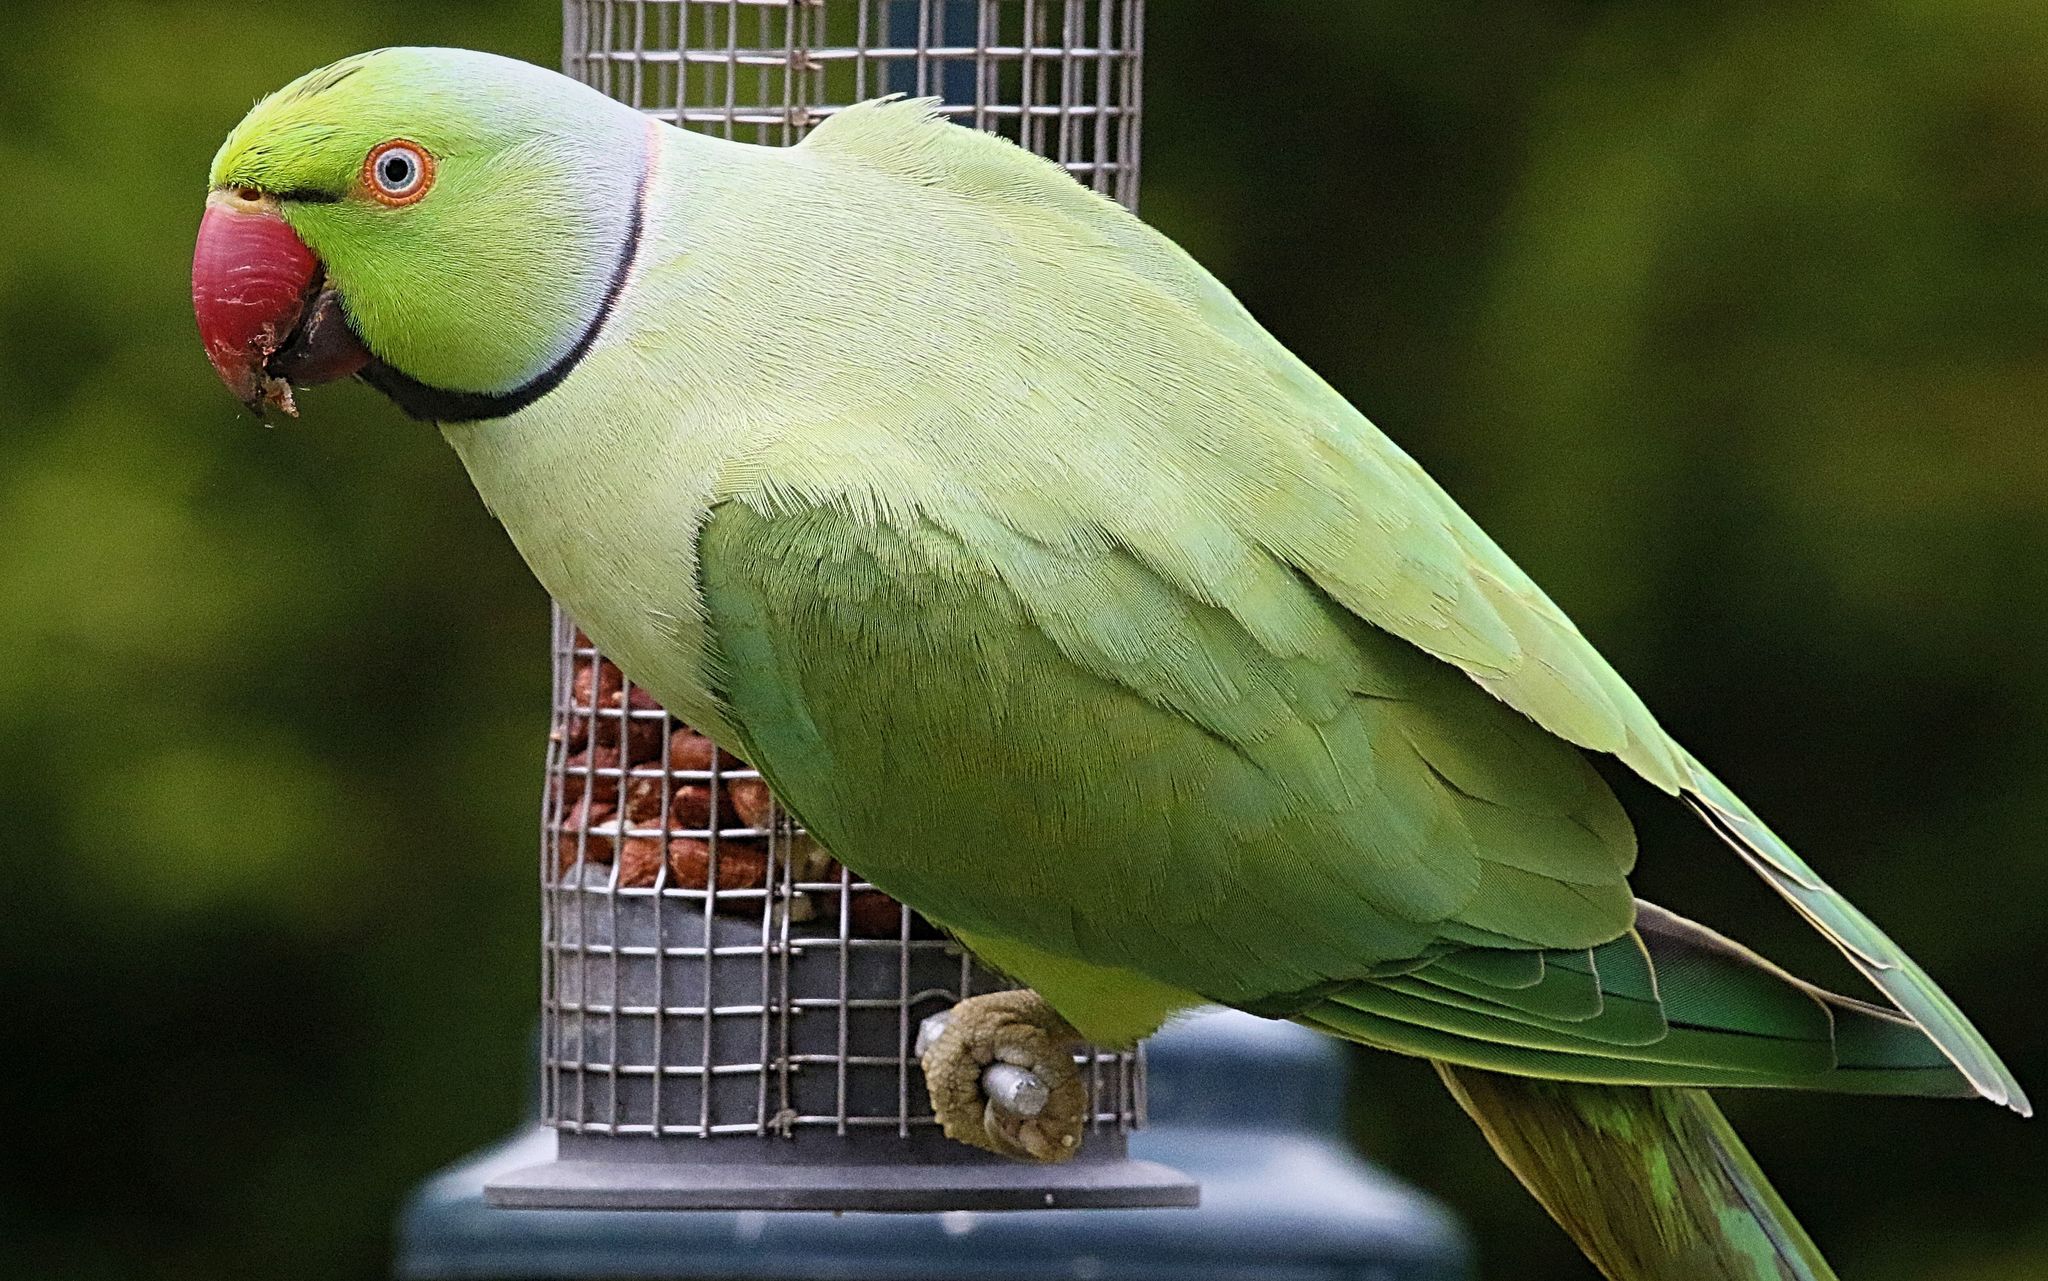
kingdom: Animalia
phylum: Chordata
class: Aves
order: Psittaciformes
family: Psittacidae
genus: Psittacula
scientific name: Psittacula krameri
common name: Rose-ringed parakeet
